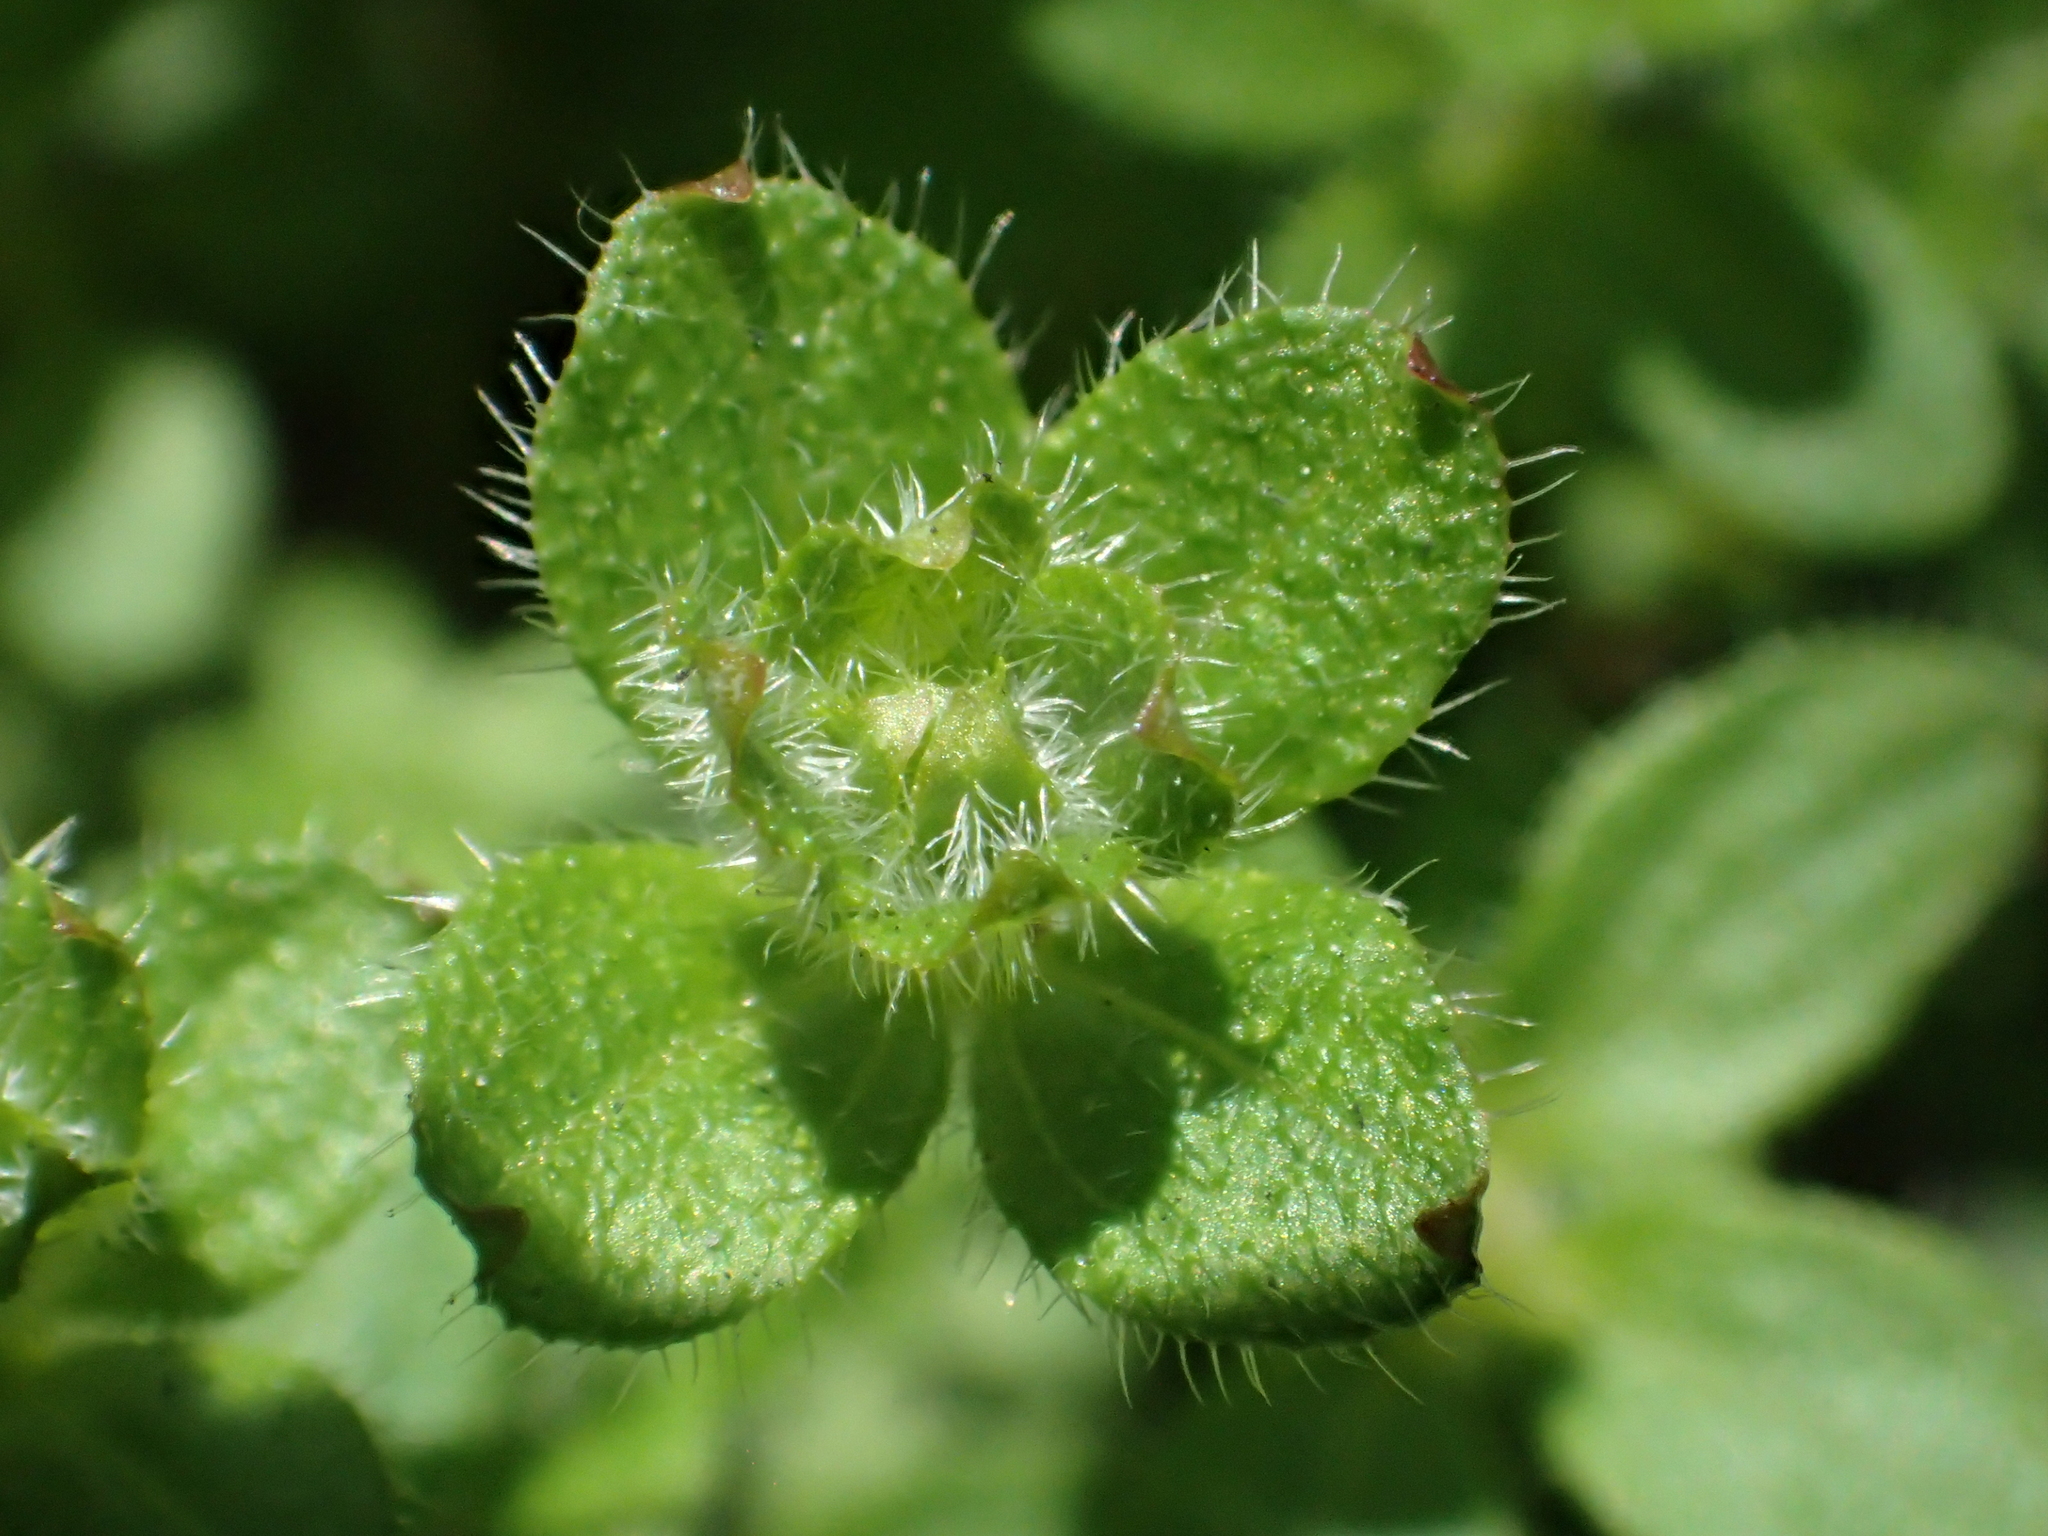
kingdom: Plantae
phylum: Tracheophyta
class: Magnoliopsida
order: Gentianales
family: Rubiaceae
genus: Galium
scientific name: Galium formosense
